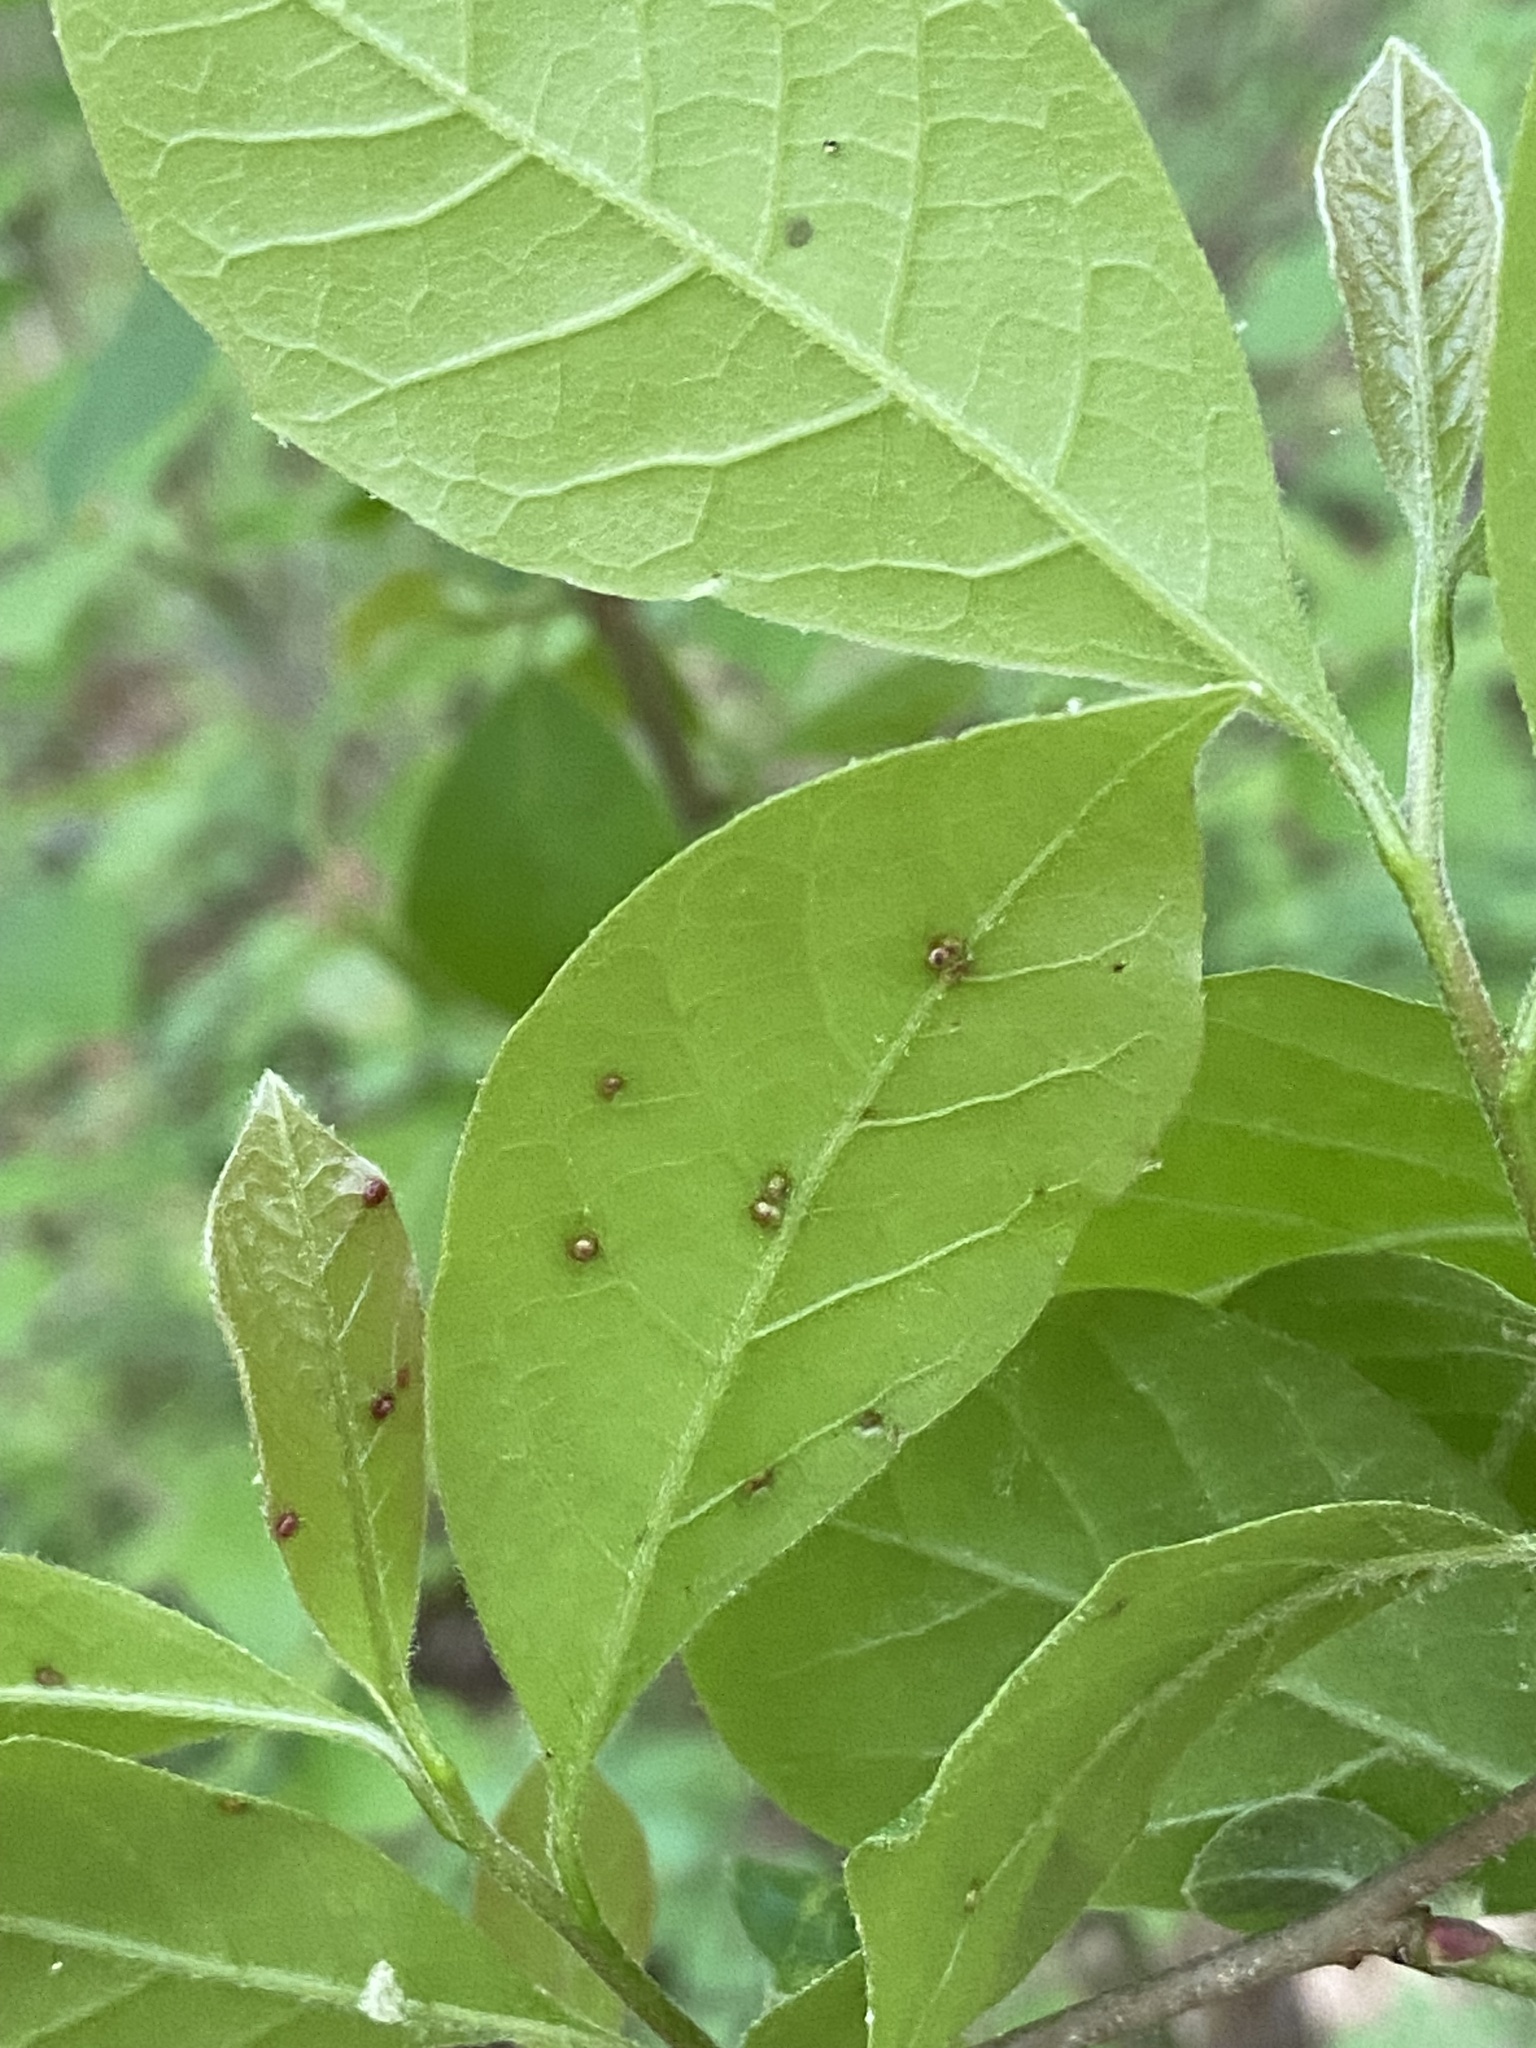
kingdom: Animalia
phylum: Arthropoda
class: Arachnida
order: Trombidiformes
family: Eriophyidae
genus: Aceria
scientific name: Aceria
